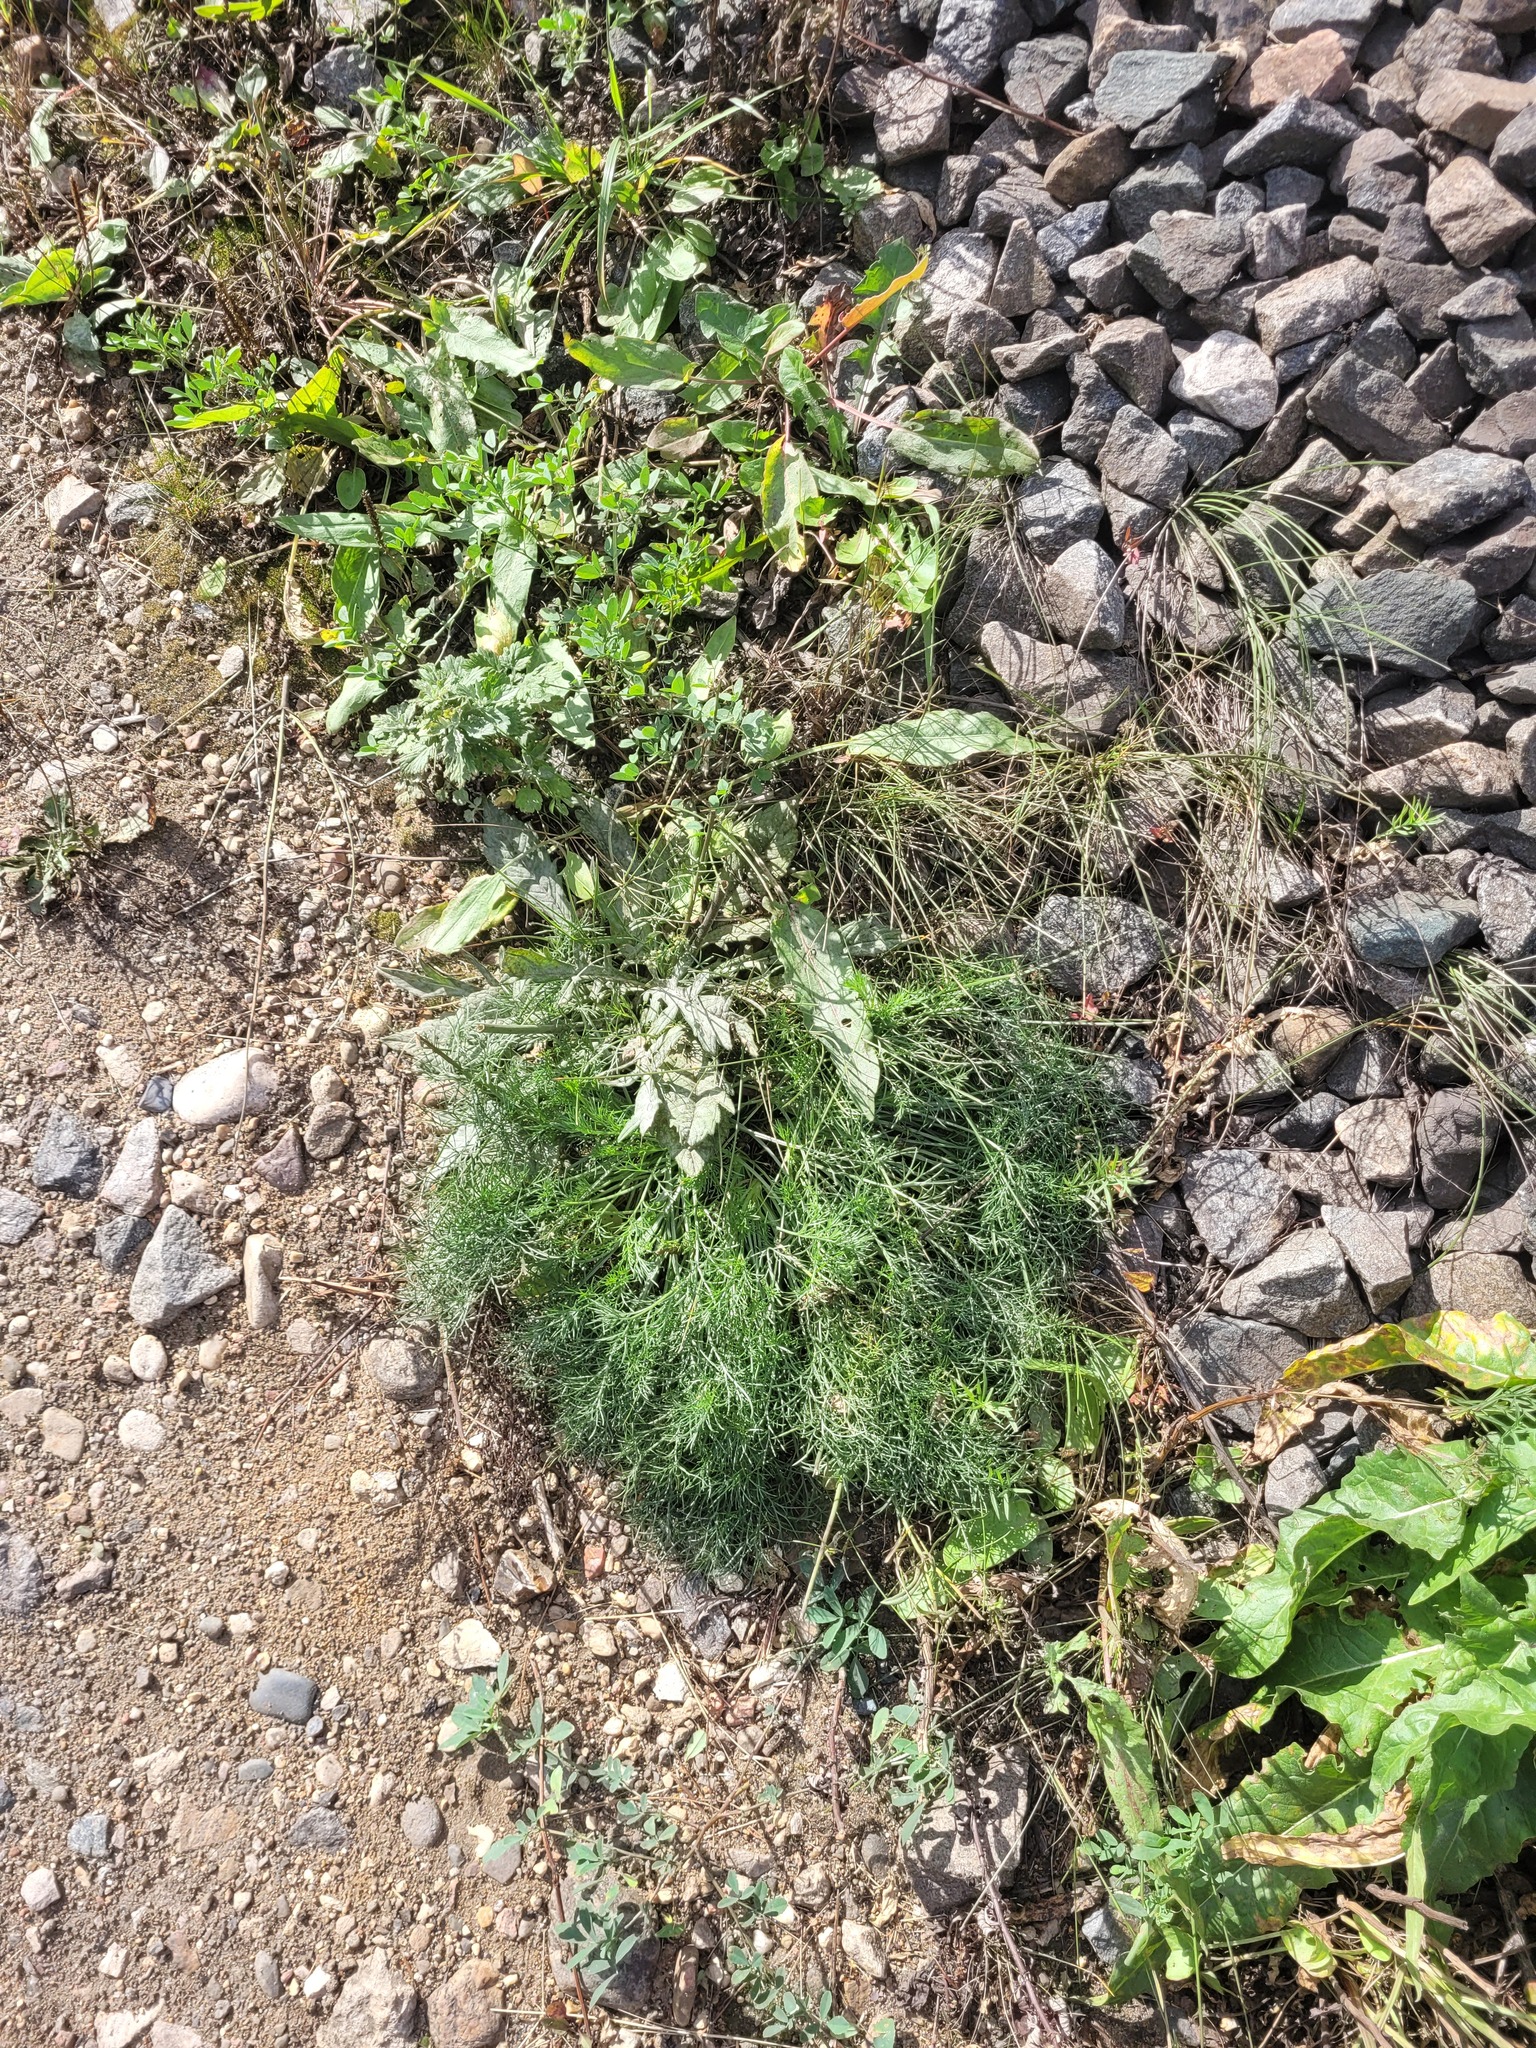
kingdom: Plantae
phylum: Tracheophyta
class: Magnoliopsida
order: Asterales
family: Asteraceae
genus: Artemisia
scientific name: Artemisia campestris
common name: Field wormwood
